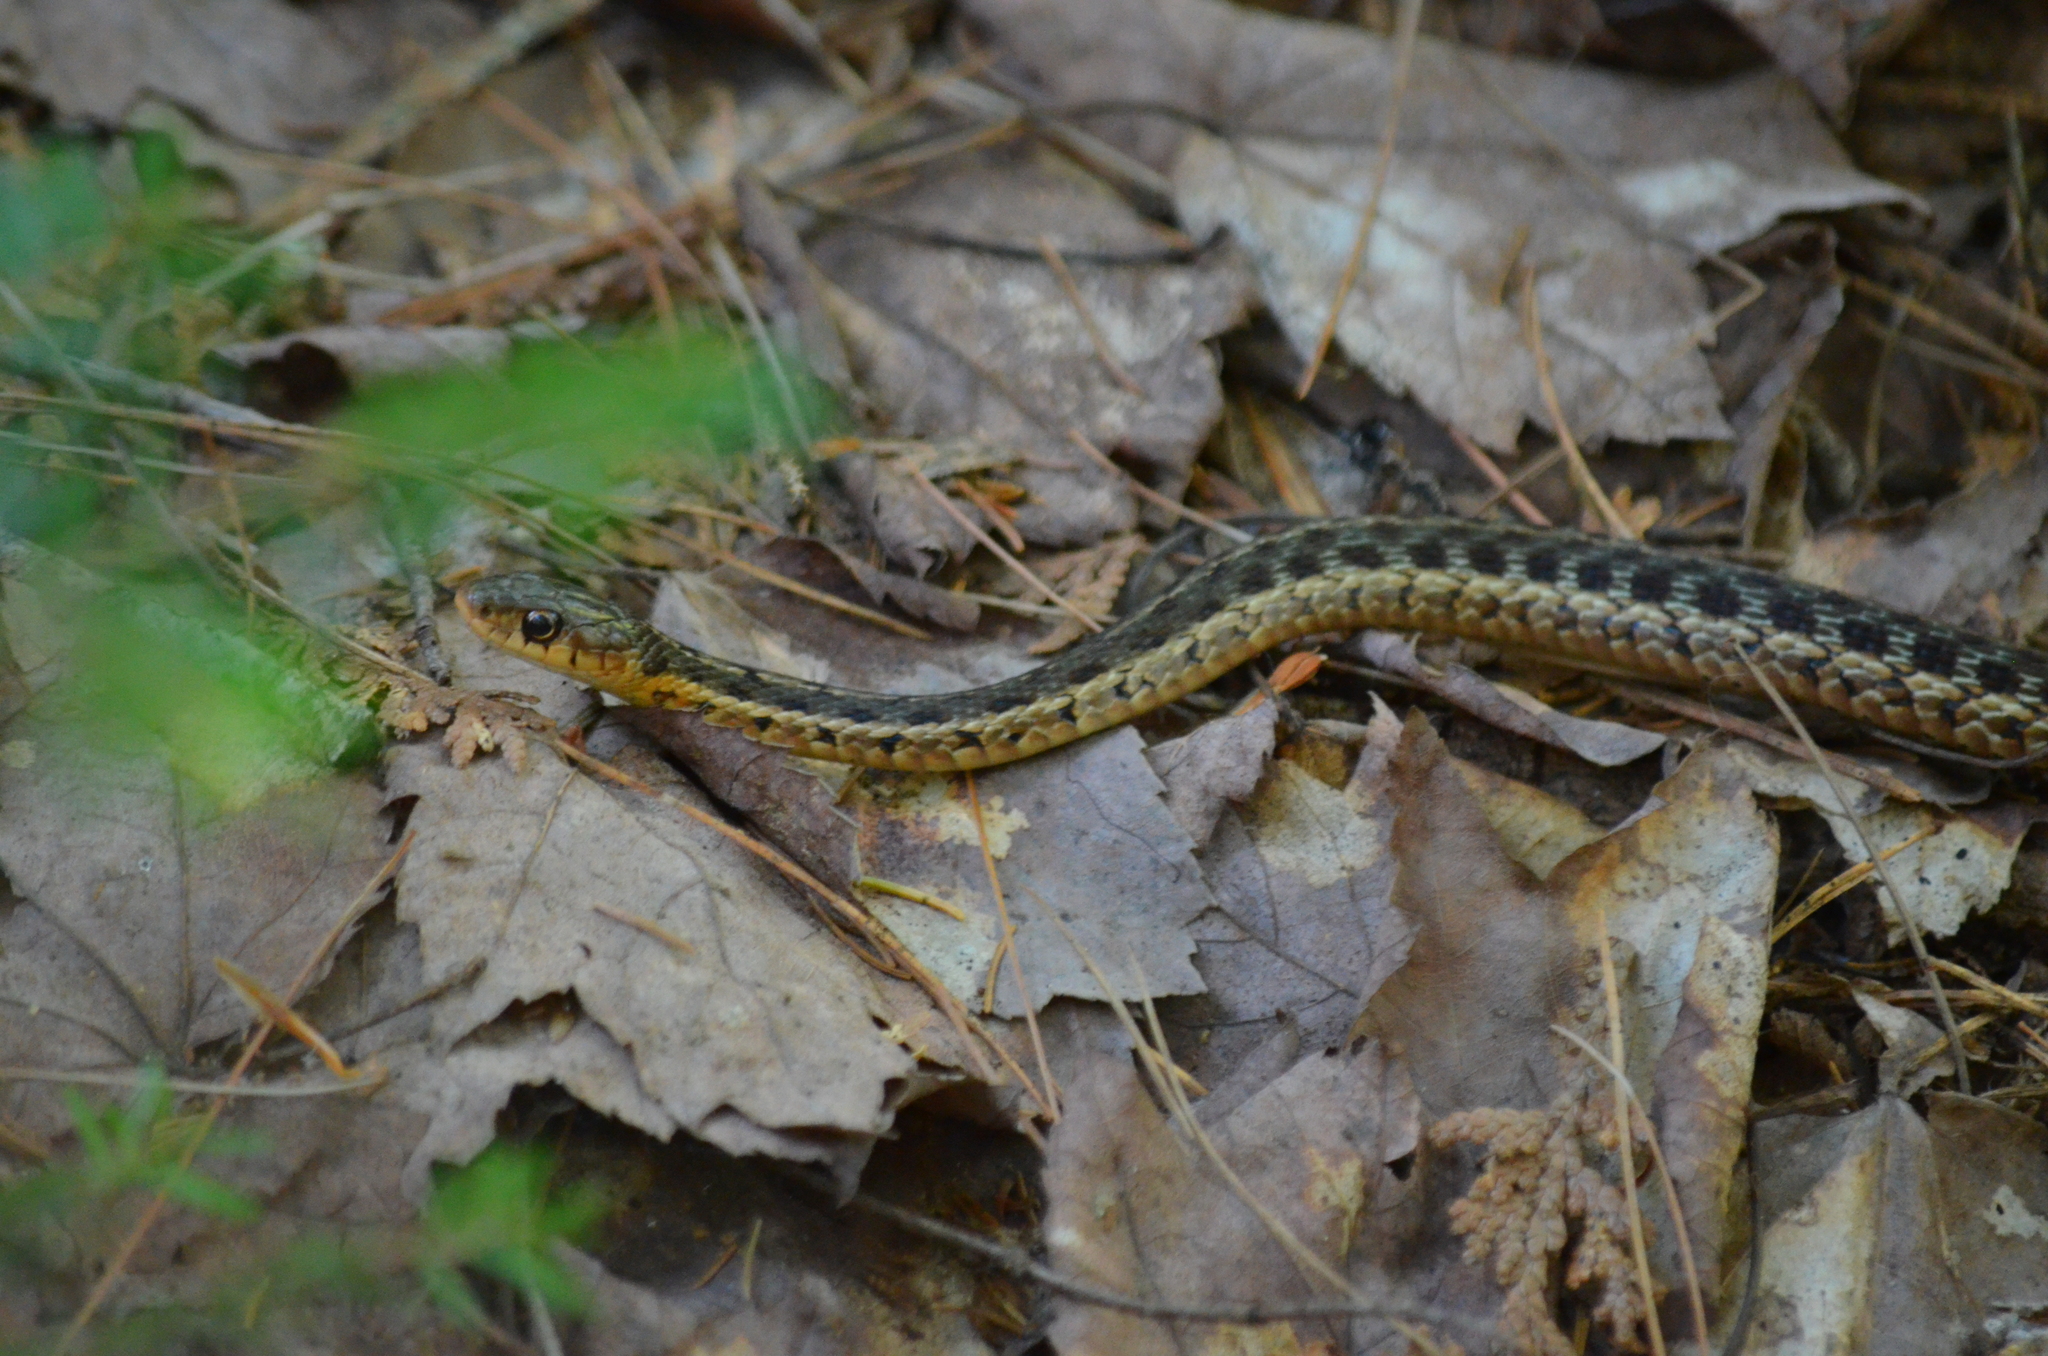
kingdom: Animalia
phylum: Chordata
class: Squamata
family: Colubridae
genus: Thamnophis
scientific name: Thamnophis sirtalis
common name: Common garter snake
